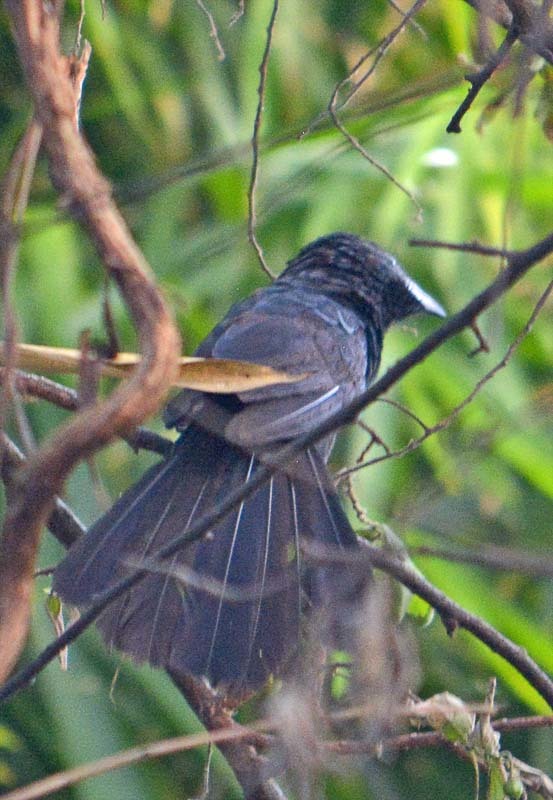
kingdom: Animalia
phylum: Chordata
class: Aves
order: Cuculiformes
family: Cuculidae
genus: Crotophaga
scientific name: Crotophaga sulcirostris
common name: Groove-billed ani
